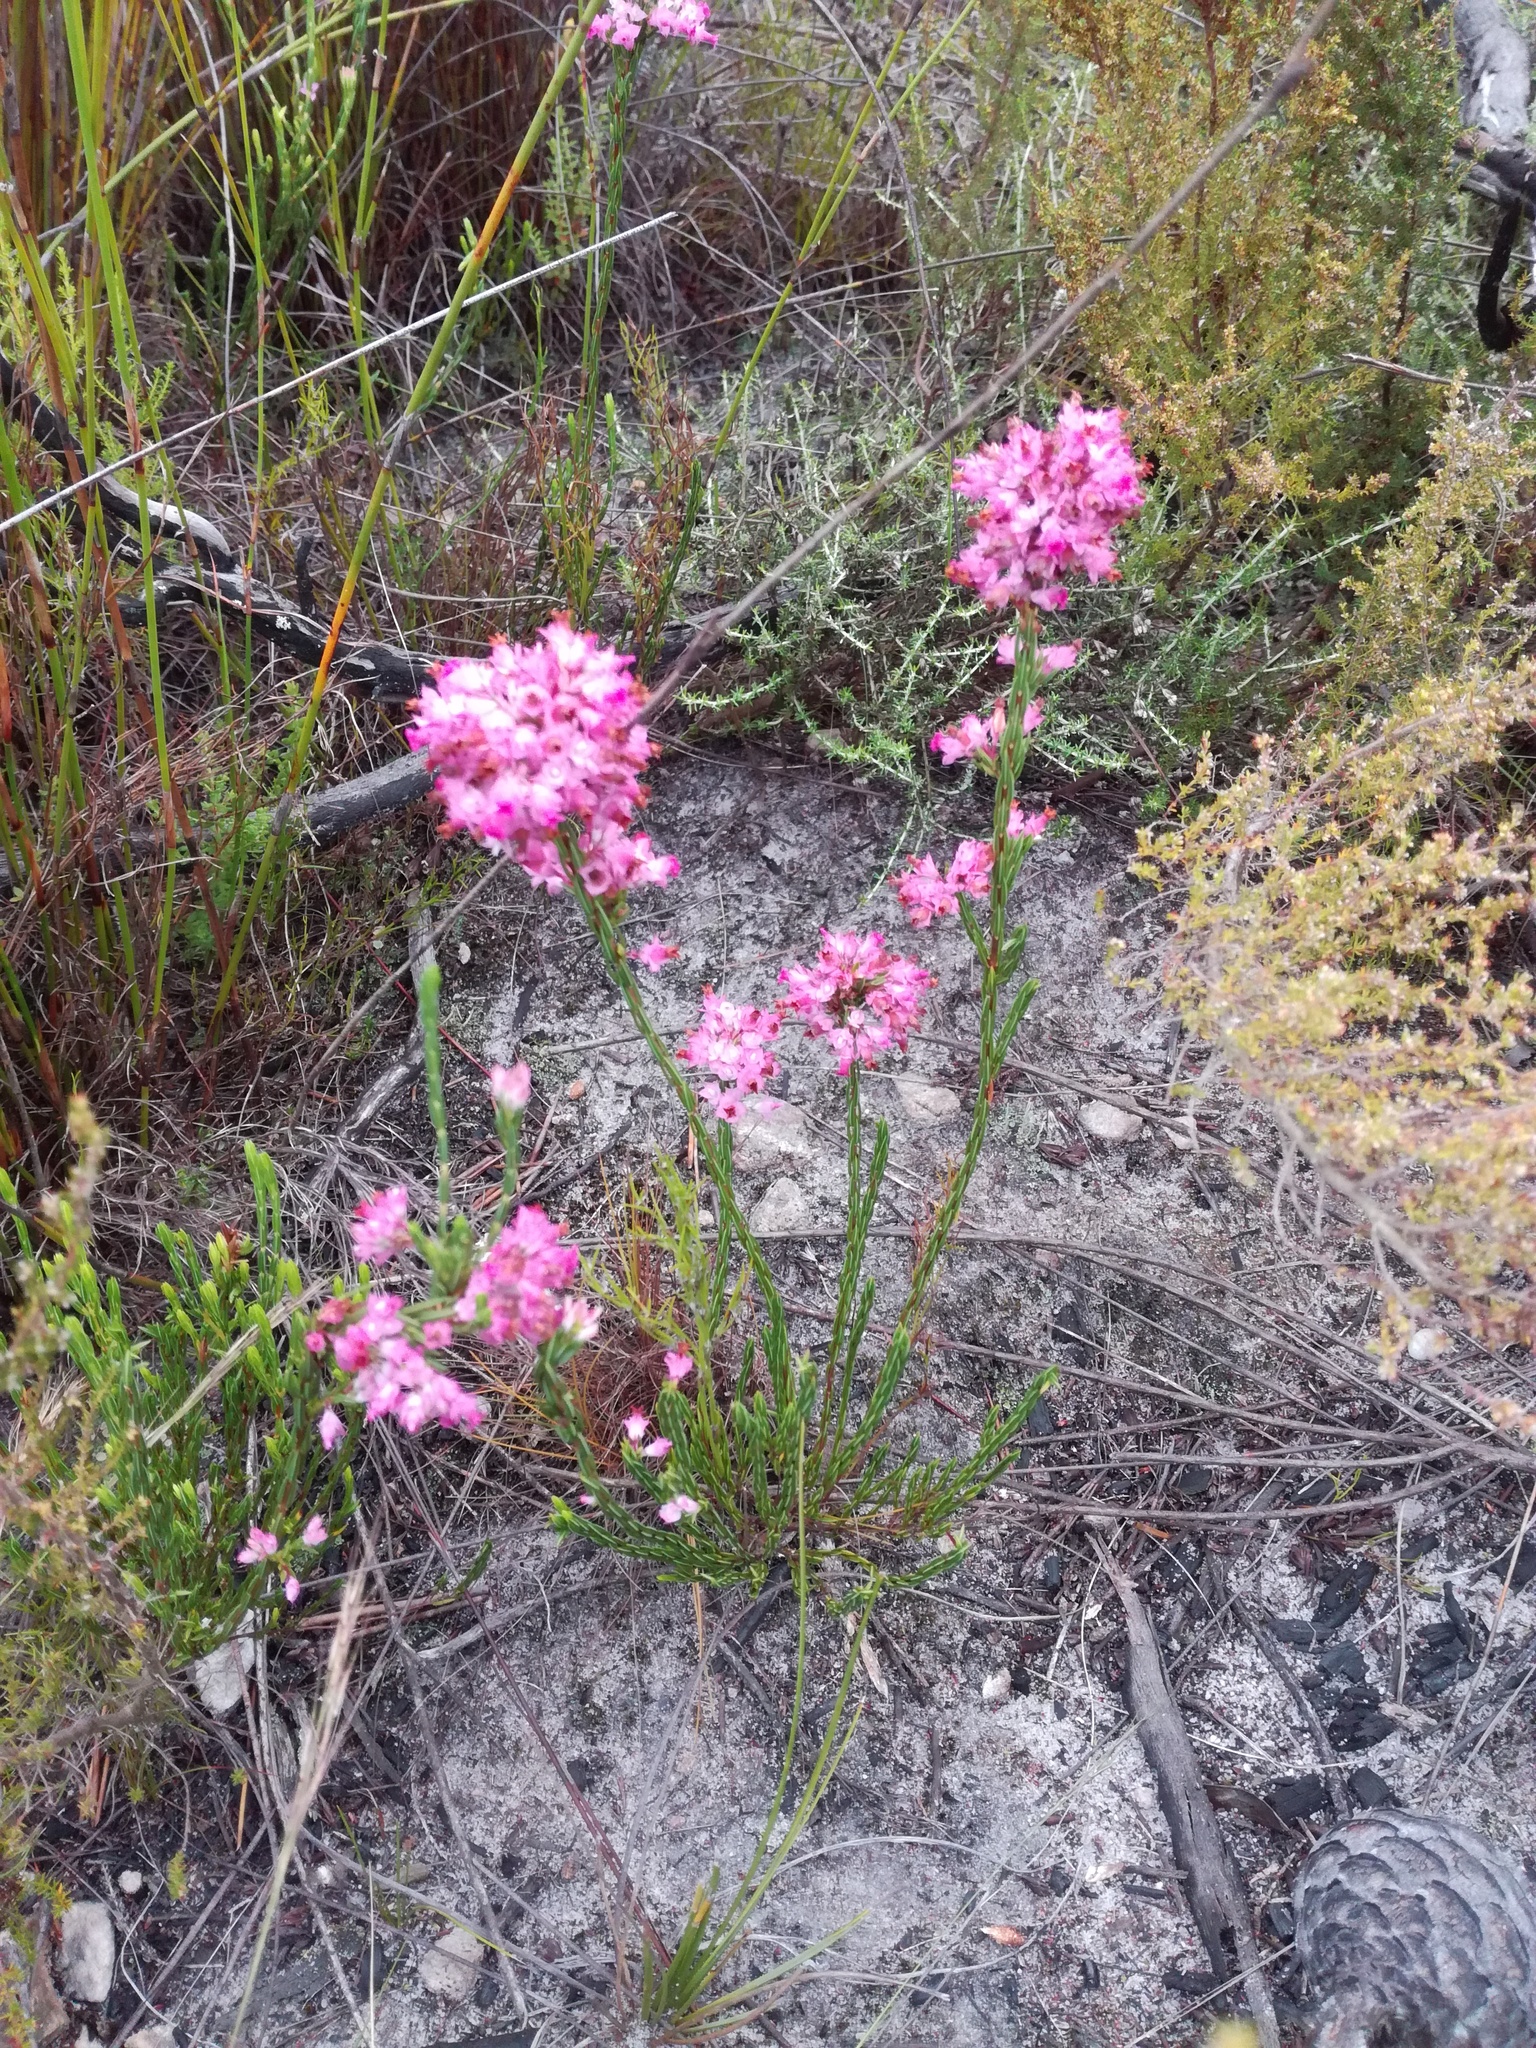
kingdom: Plantae
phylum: Tracheophyta
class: Magnoliopsida
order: Ericales
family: Ericaceae
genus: Erica
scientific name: Erica corifolia
